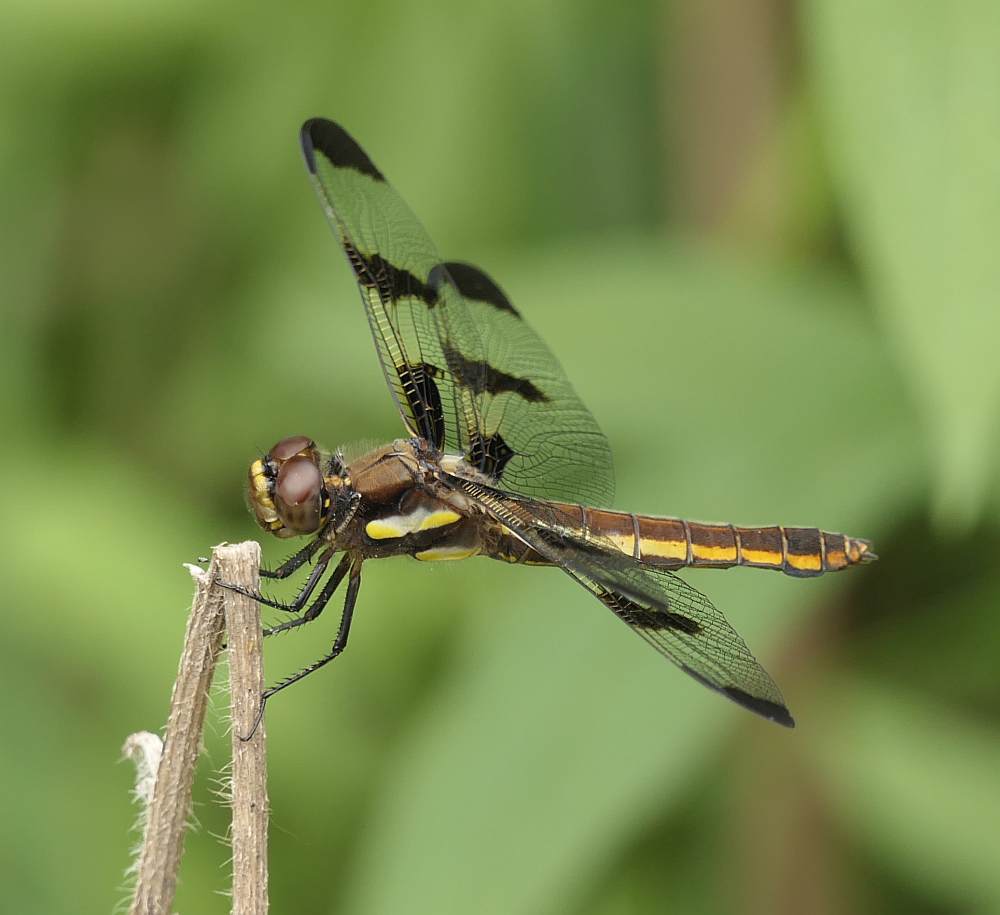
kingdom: Animalia
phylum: Arthropoda
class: Insecta
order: Odonata
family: Libellulidae
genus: Libellula
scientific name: Libellula pulchella
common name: Twelve-spotted skimmer
